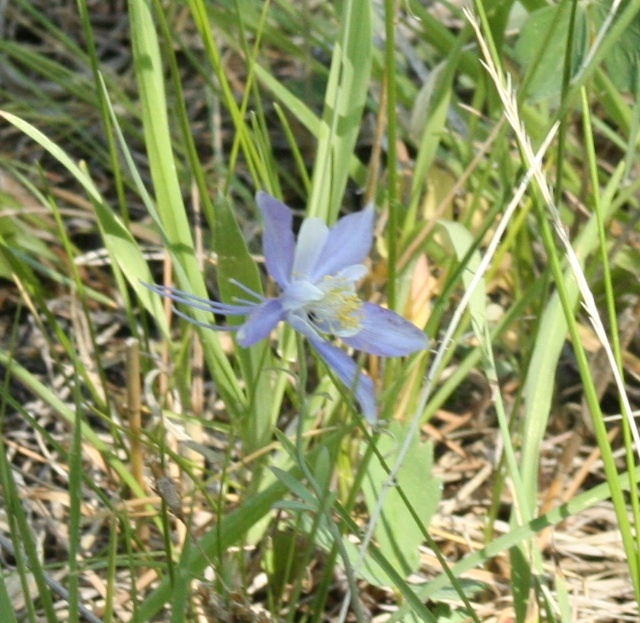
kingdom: Plantae
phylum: Tracheophyta
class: Magnoliopsida
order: Ranunculales
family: Ranunculaceae
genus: Aquilegia
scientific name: Aquilegia coerulea
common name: Rocky mountain columbine
